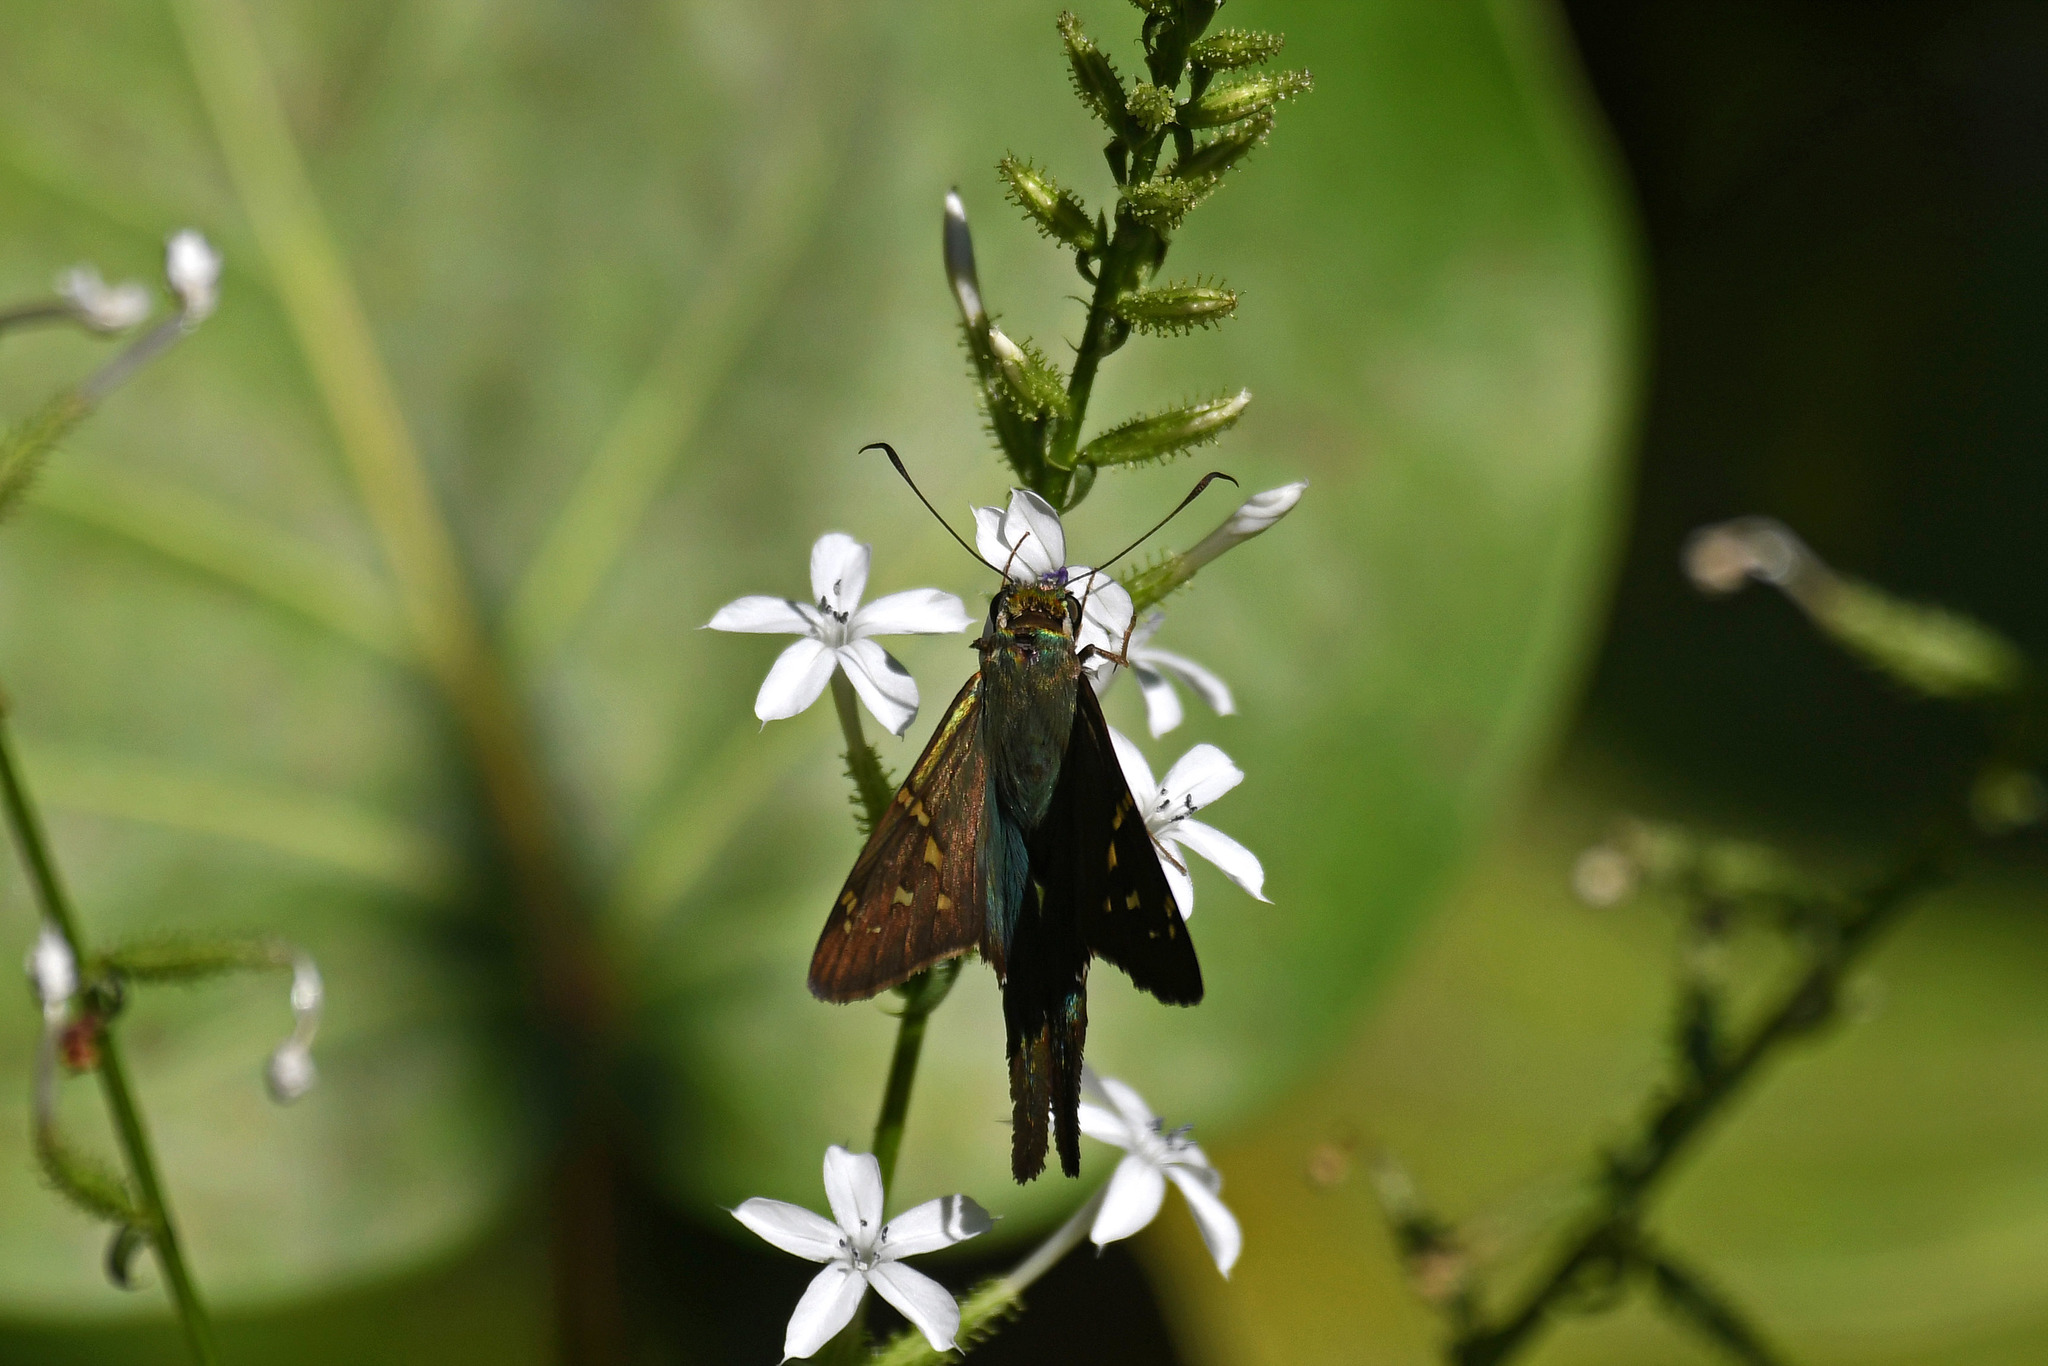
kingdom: Animalia
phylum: Arthropoda
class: Insecta
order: Lepidoptera
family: Hesperiidae
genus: Urbanus
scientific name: Urbanus proteus
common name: Long-tailed skipper
